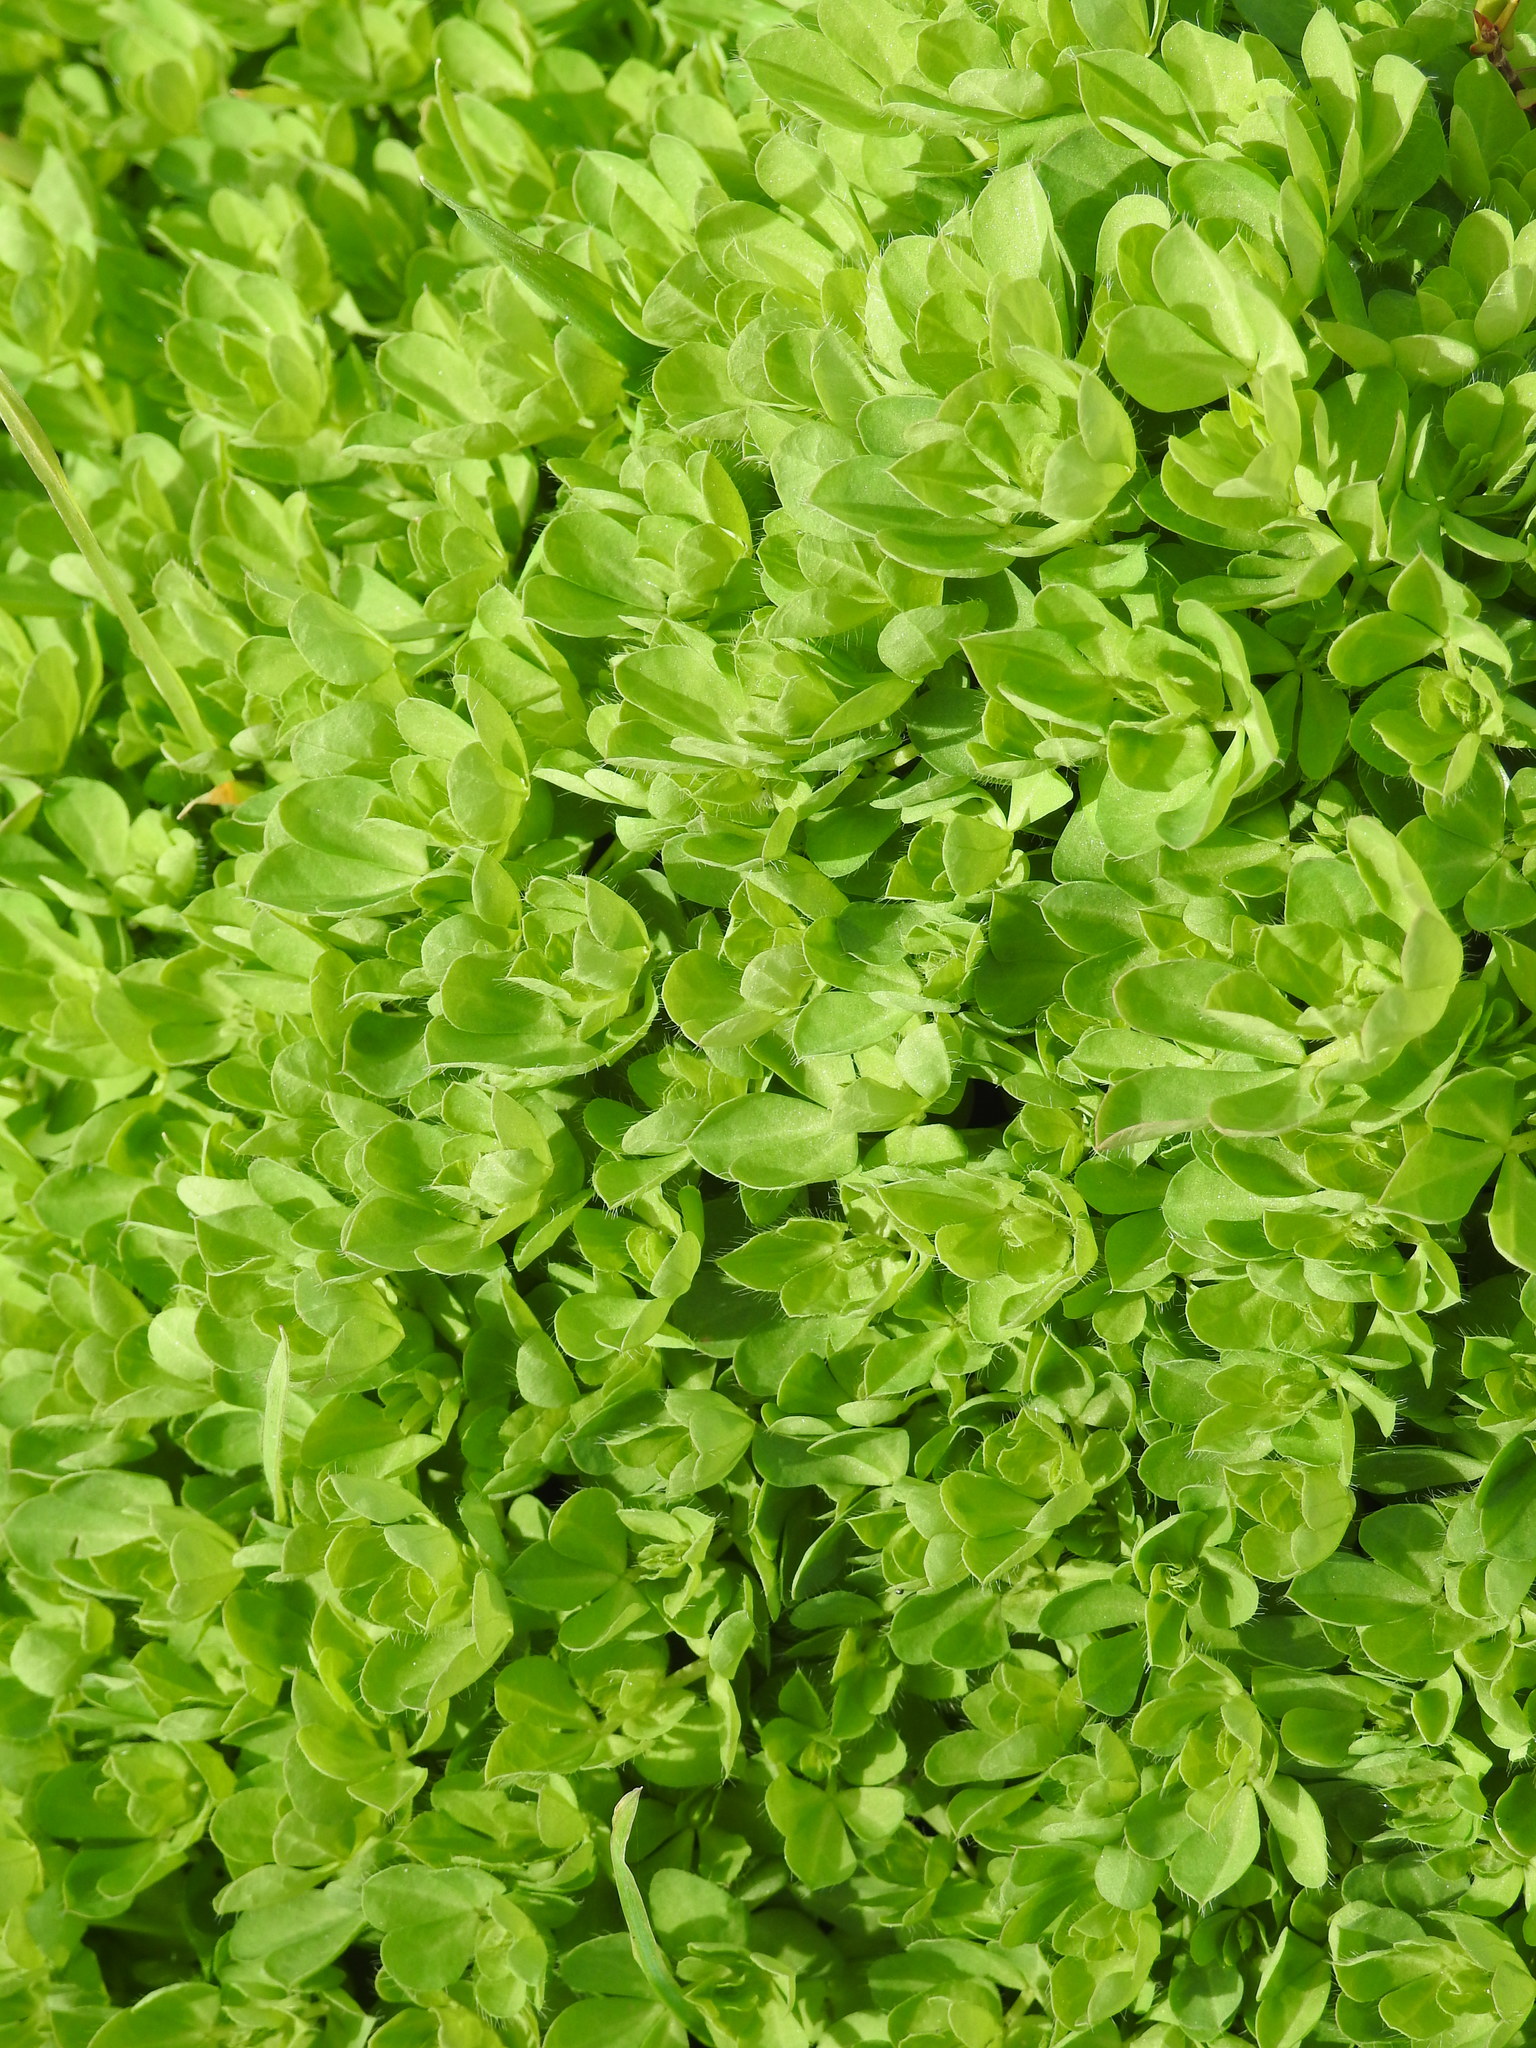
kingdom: Plantae
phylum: Tracheophyta
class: Magnoliopsida
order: Fabales
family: Fabaceae
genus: Lotus
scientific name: Lotus pedunculatus
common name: Greater birdsfoot-trefoil
